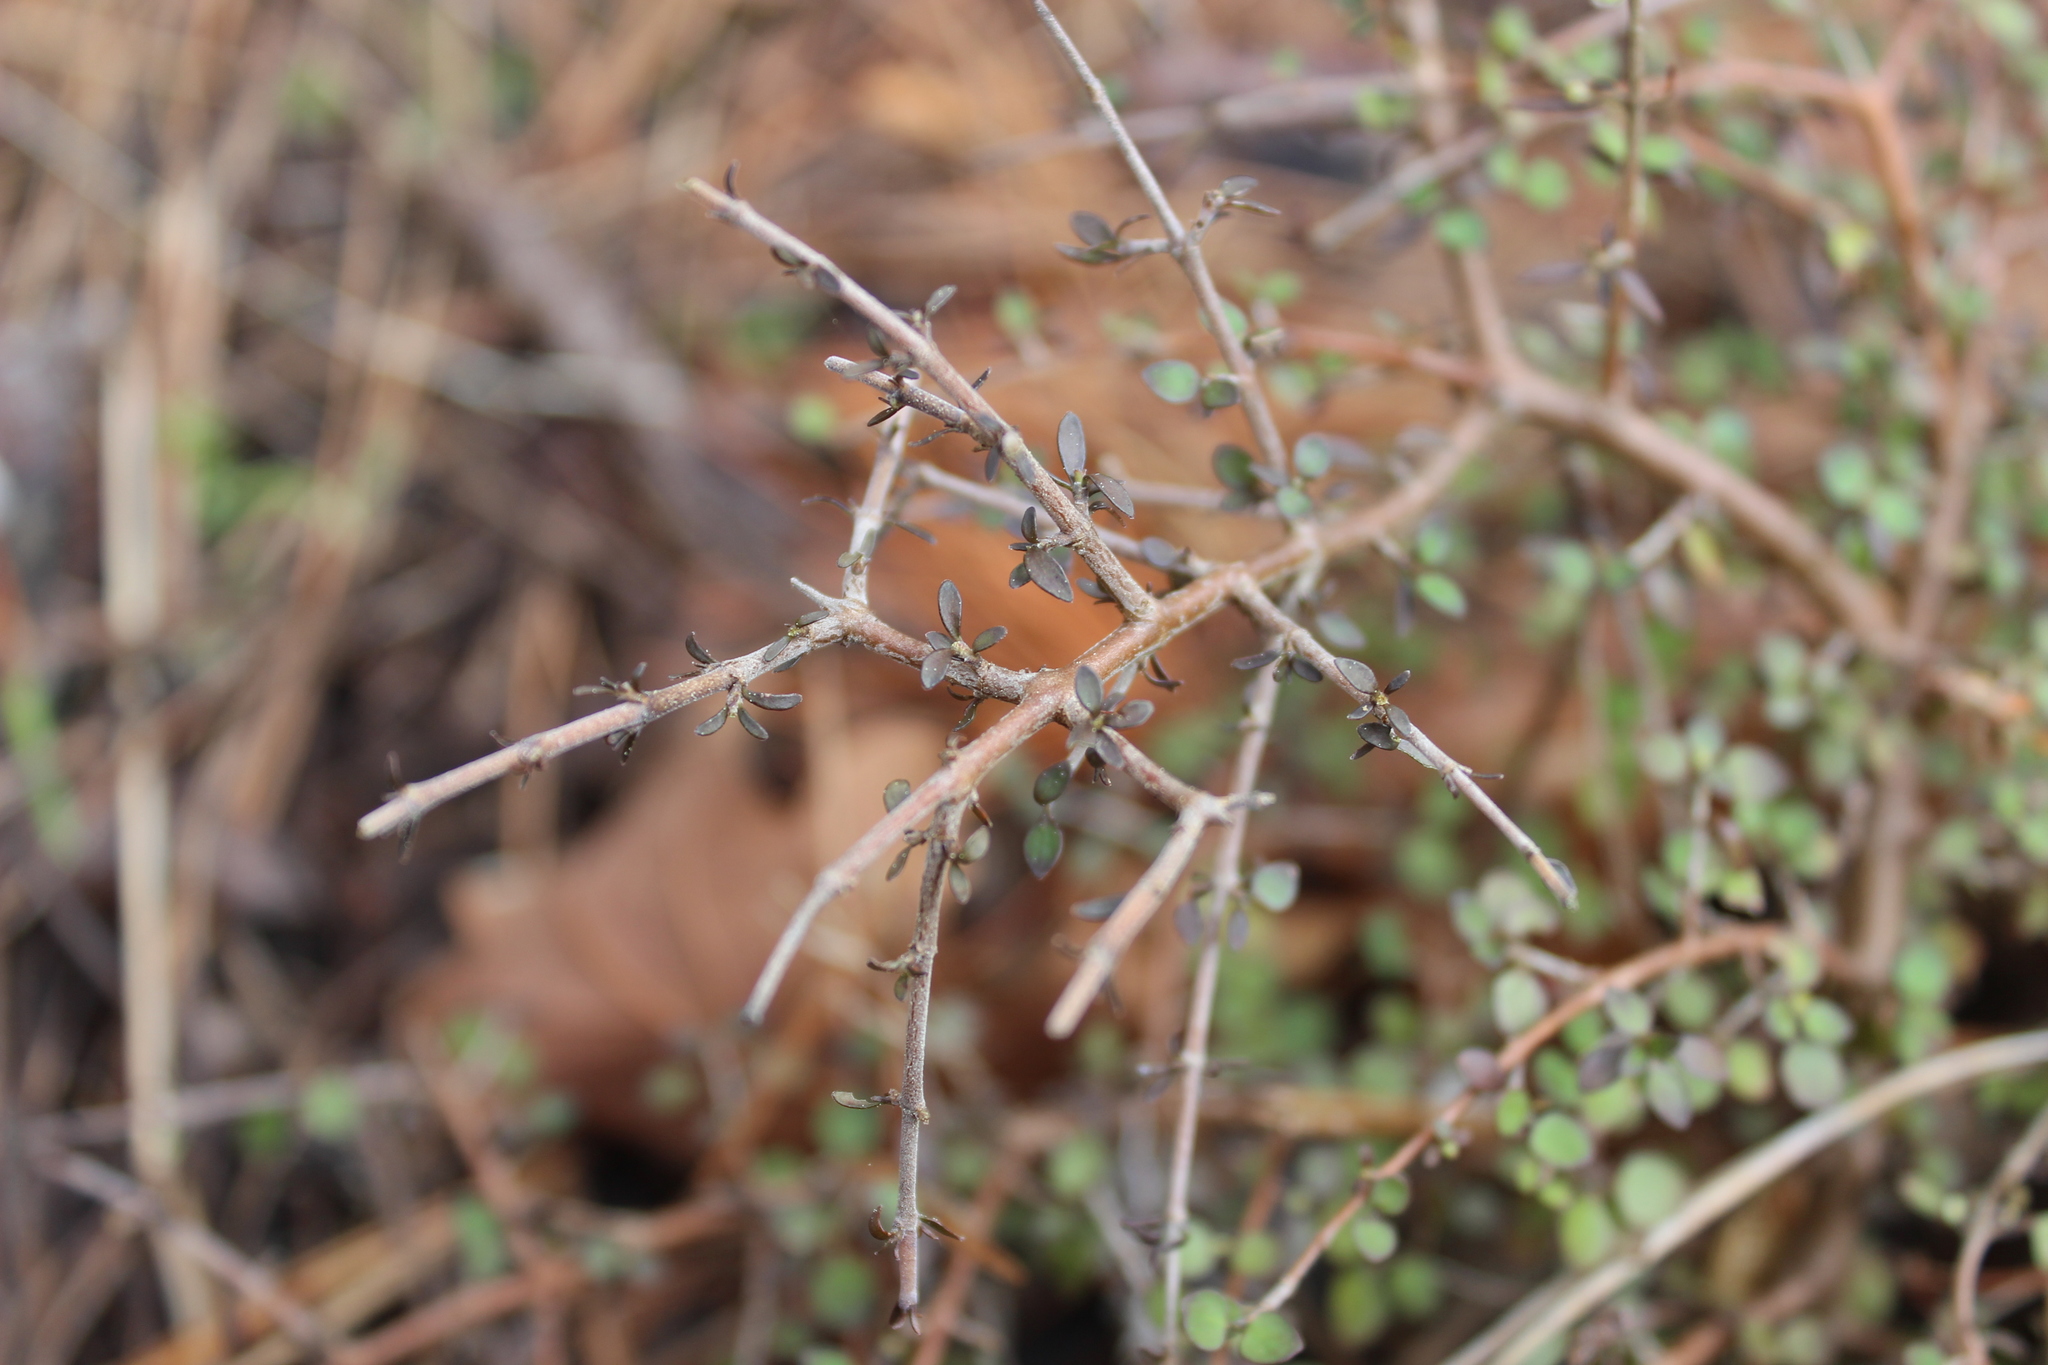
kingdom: Plantae
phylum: Tracheophyta
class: Magnoliopsida
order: Gentianales
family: Rubiaceae
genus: Coprosma
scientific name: Coprosma rhamnoides
